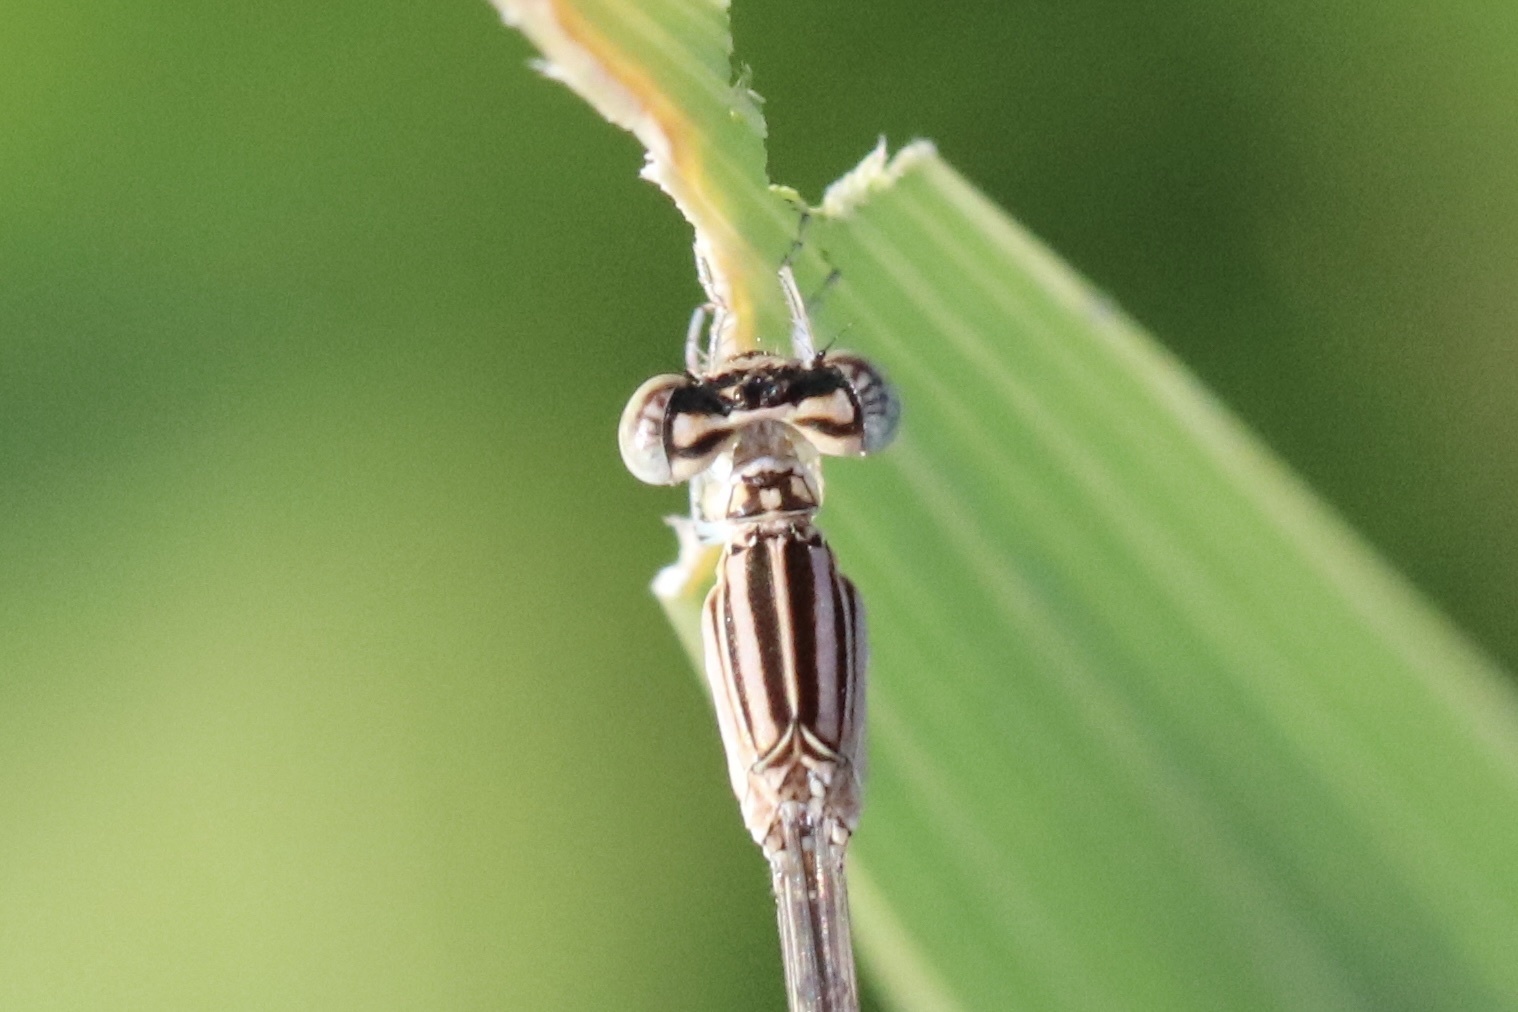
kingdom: Animalia
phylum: Arthropoda
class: Insecta
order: Odonata
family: Coenagrionidae
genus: Enallagma
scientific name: Enallagma basidens
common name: Double-striped bluet
